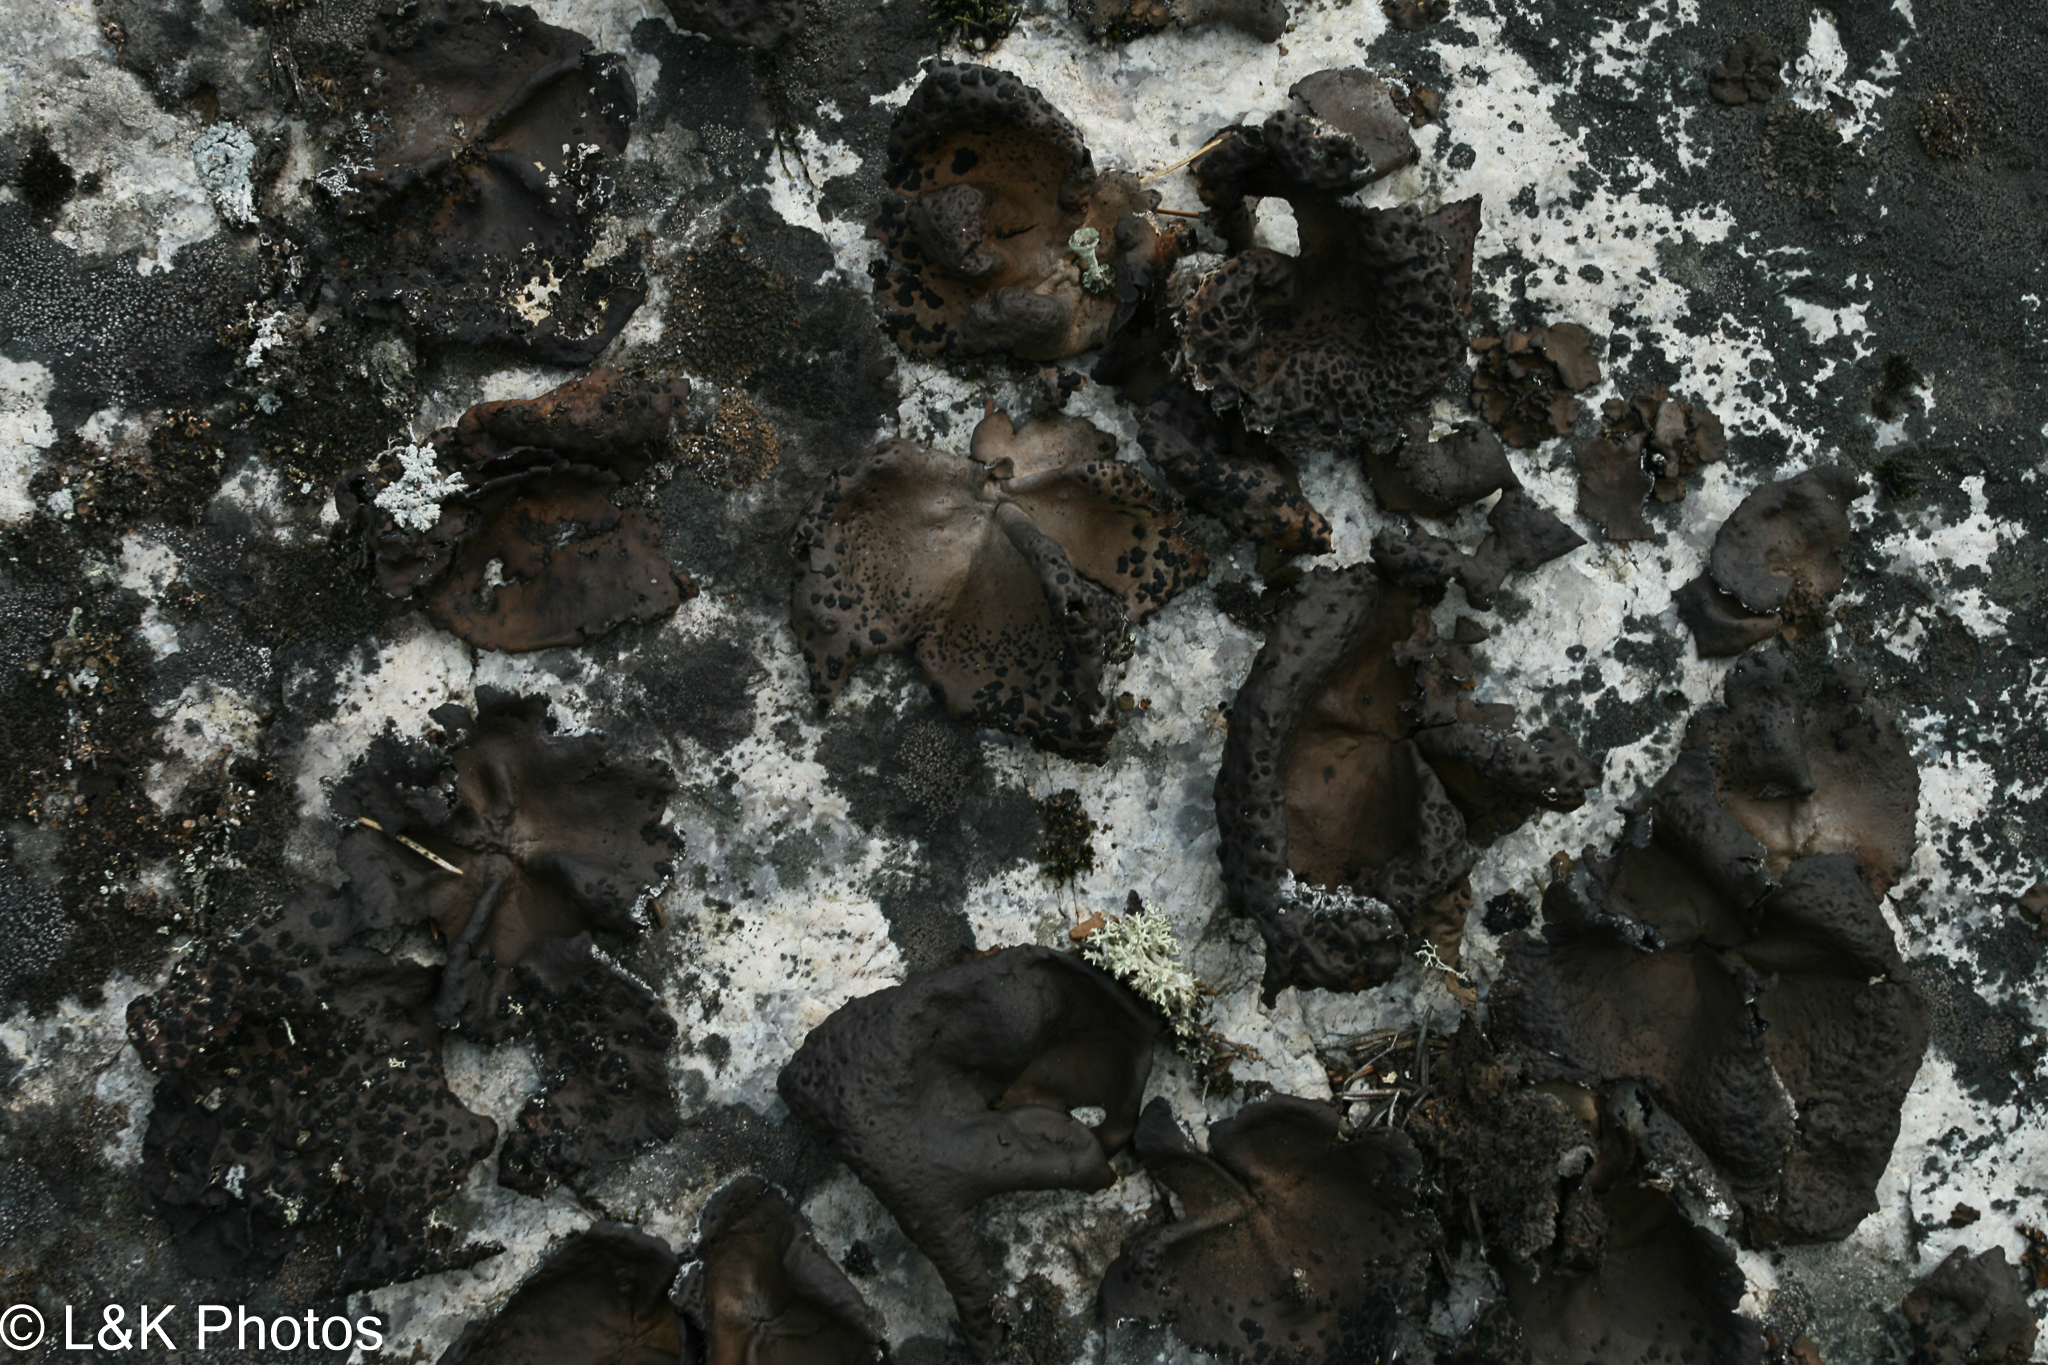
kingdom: Fungi
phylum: Ascomycota
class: Lecanoromycetes
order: Umbilicariales
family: Umbilicariaceae
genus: Umbilicaria
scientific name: Umbilicaria muhlenbergii
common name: Lesser rocktripe
